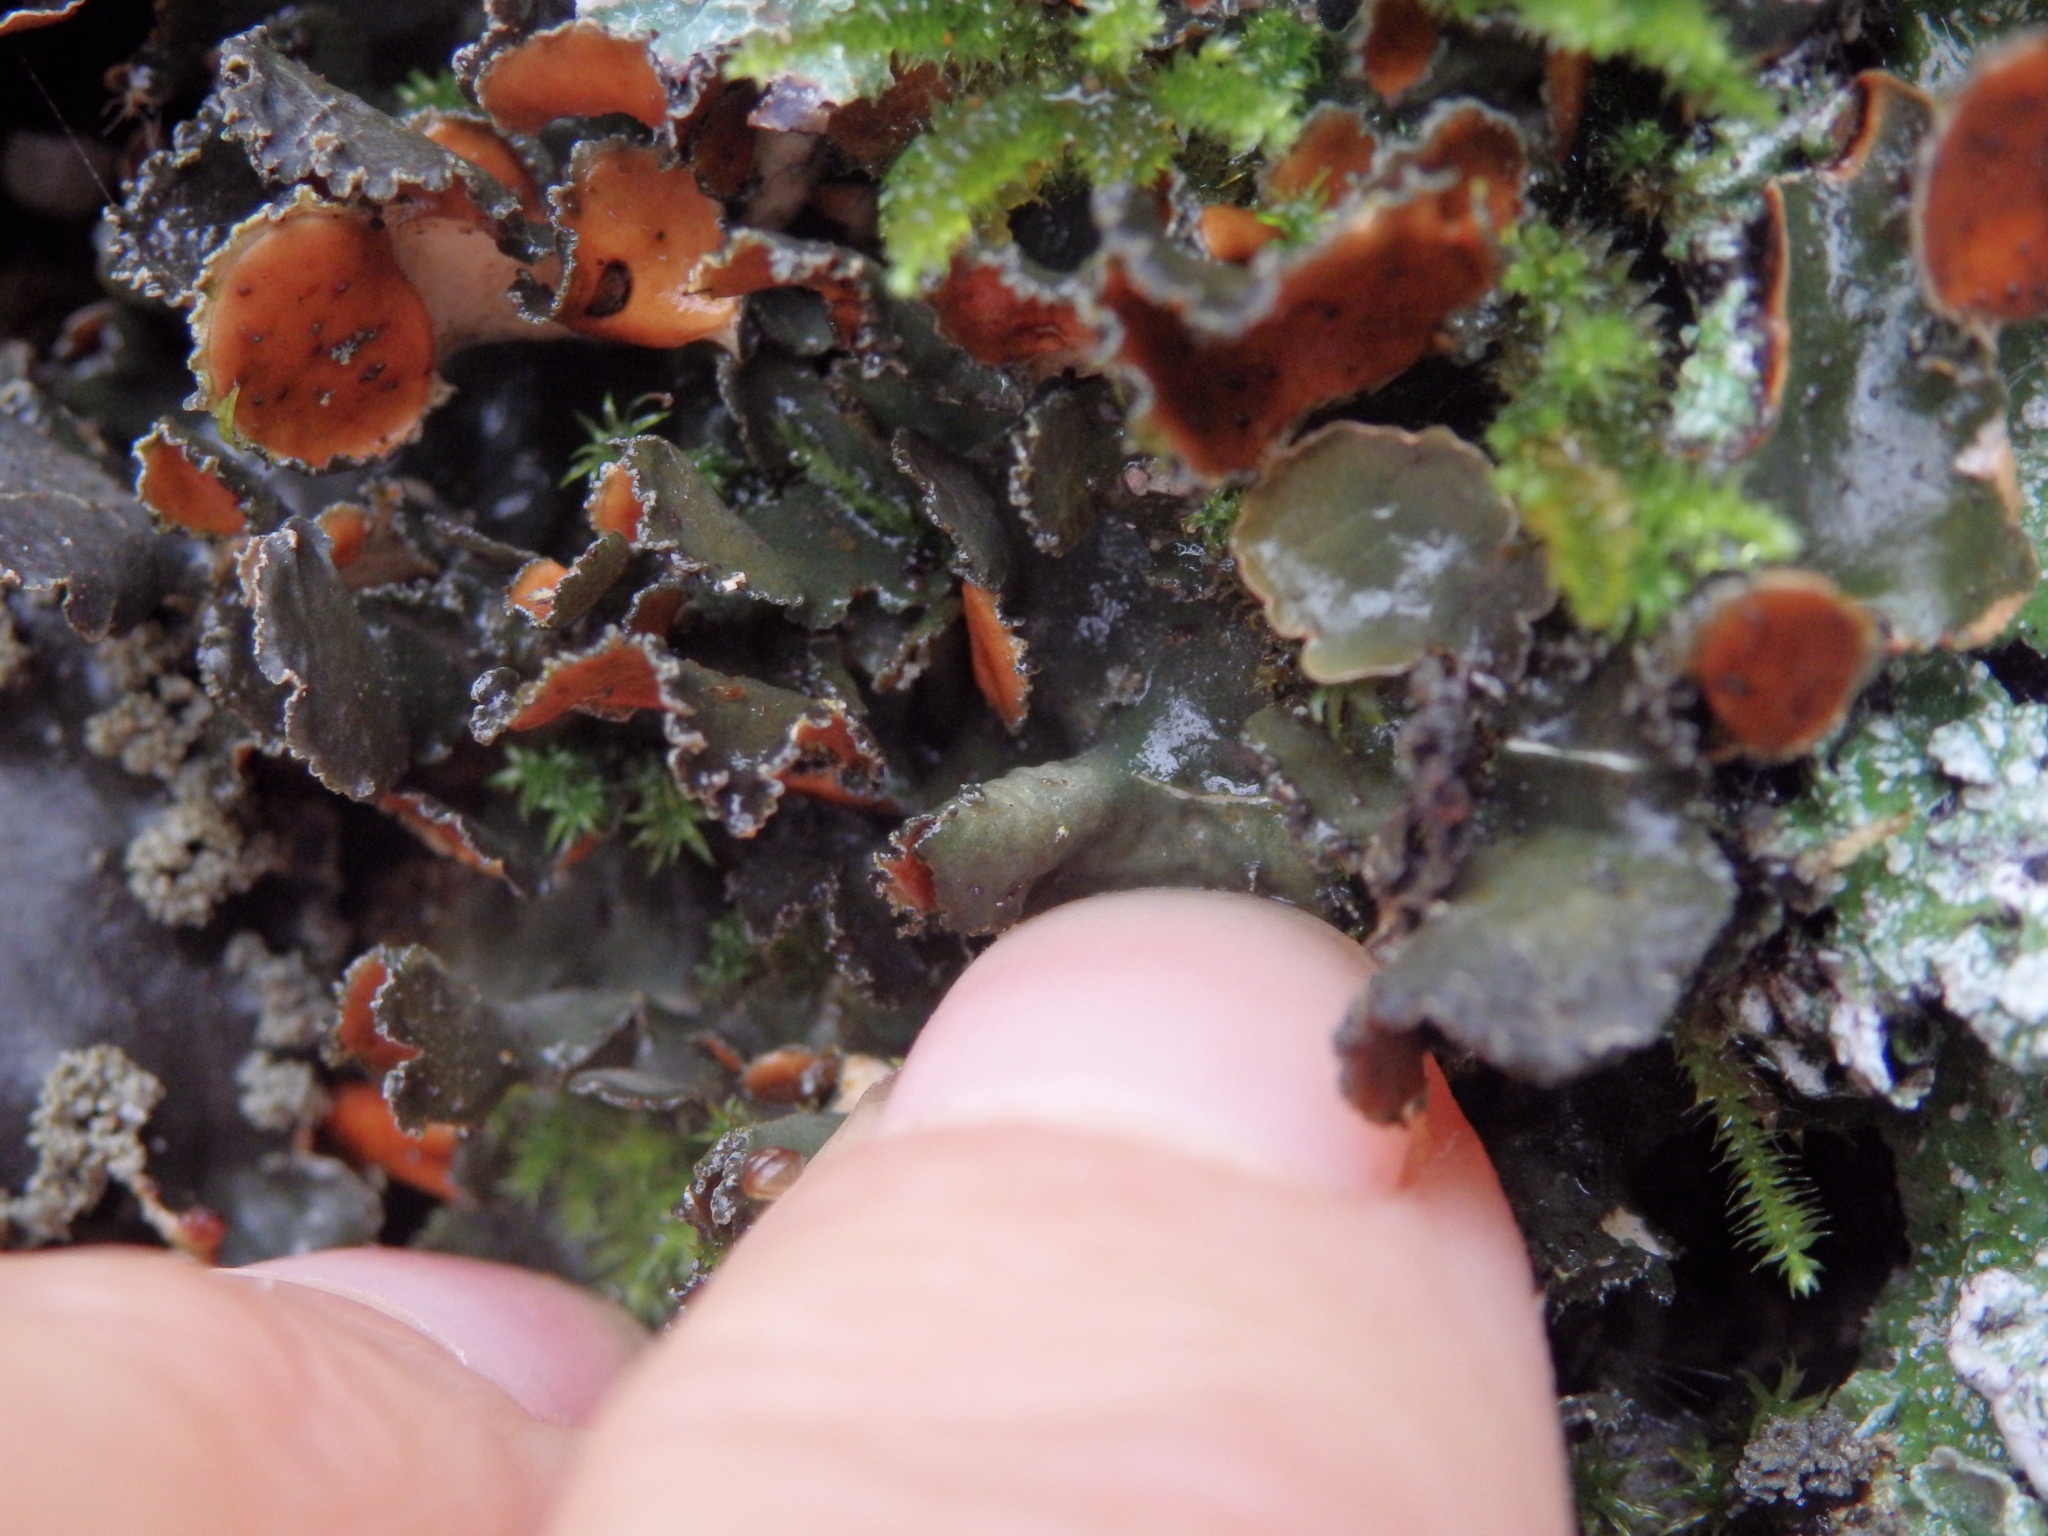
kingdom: Fungi
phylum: Ascomycota
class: Lecanoromycetes
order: Peltigerales
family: Nephromataceae
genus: Nephroma
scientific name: Nephroma laevigatum
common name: Mustard kidney lichen
